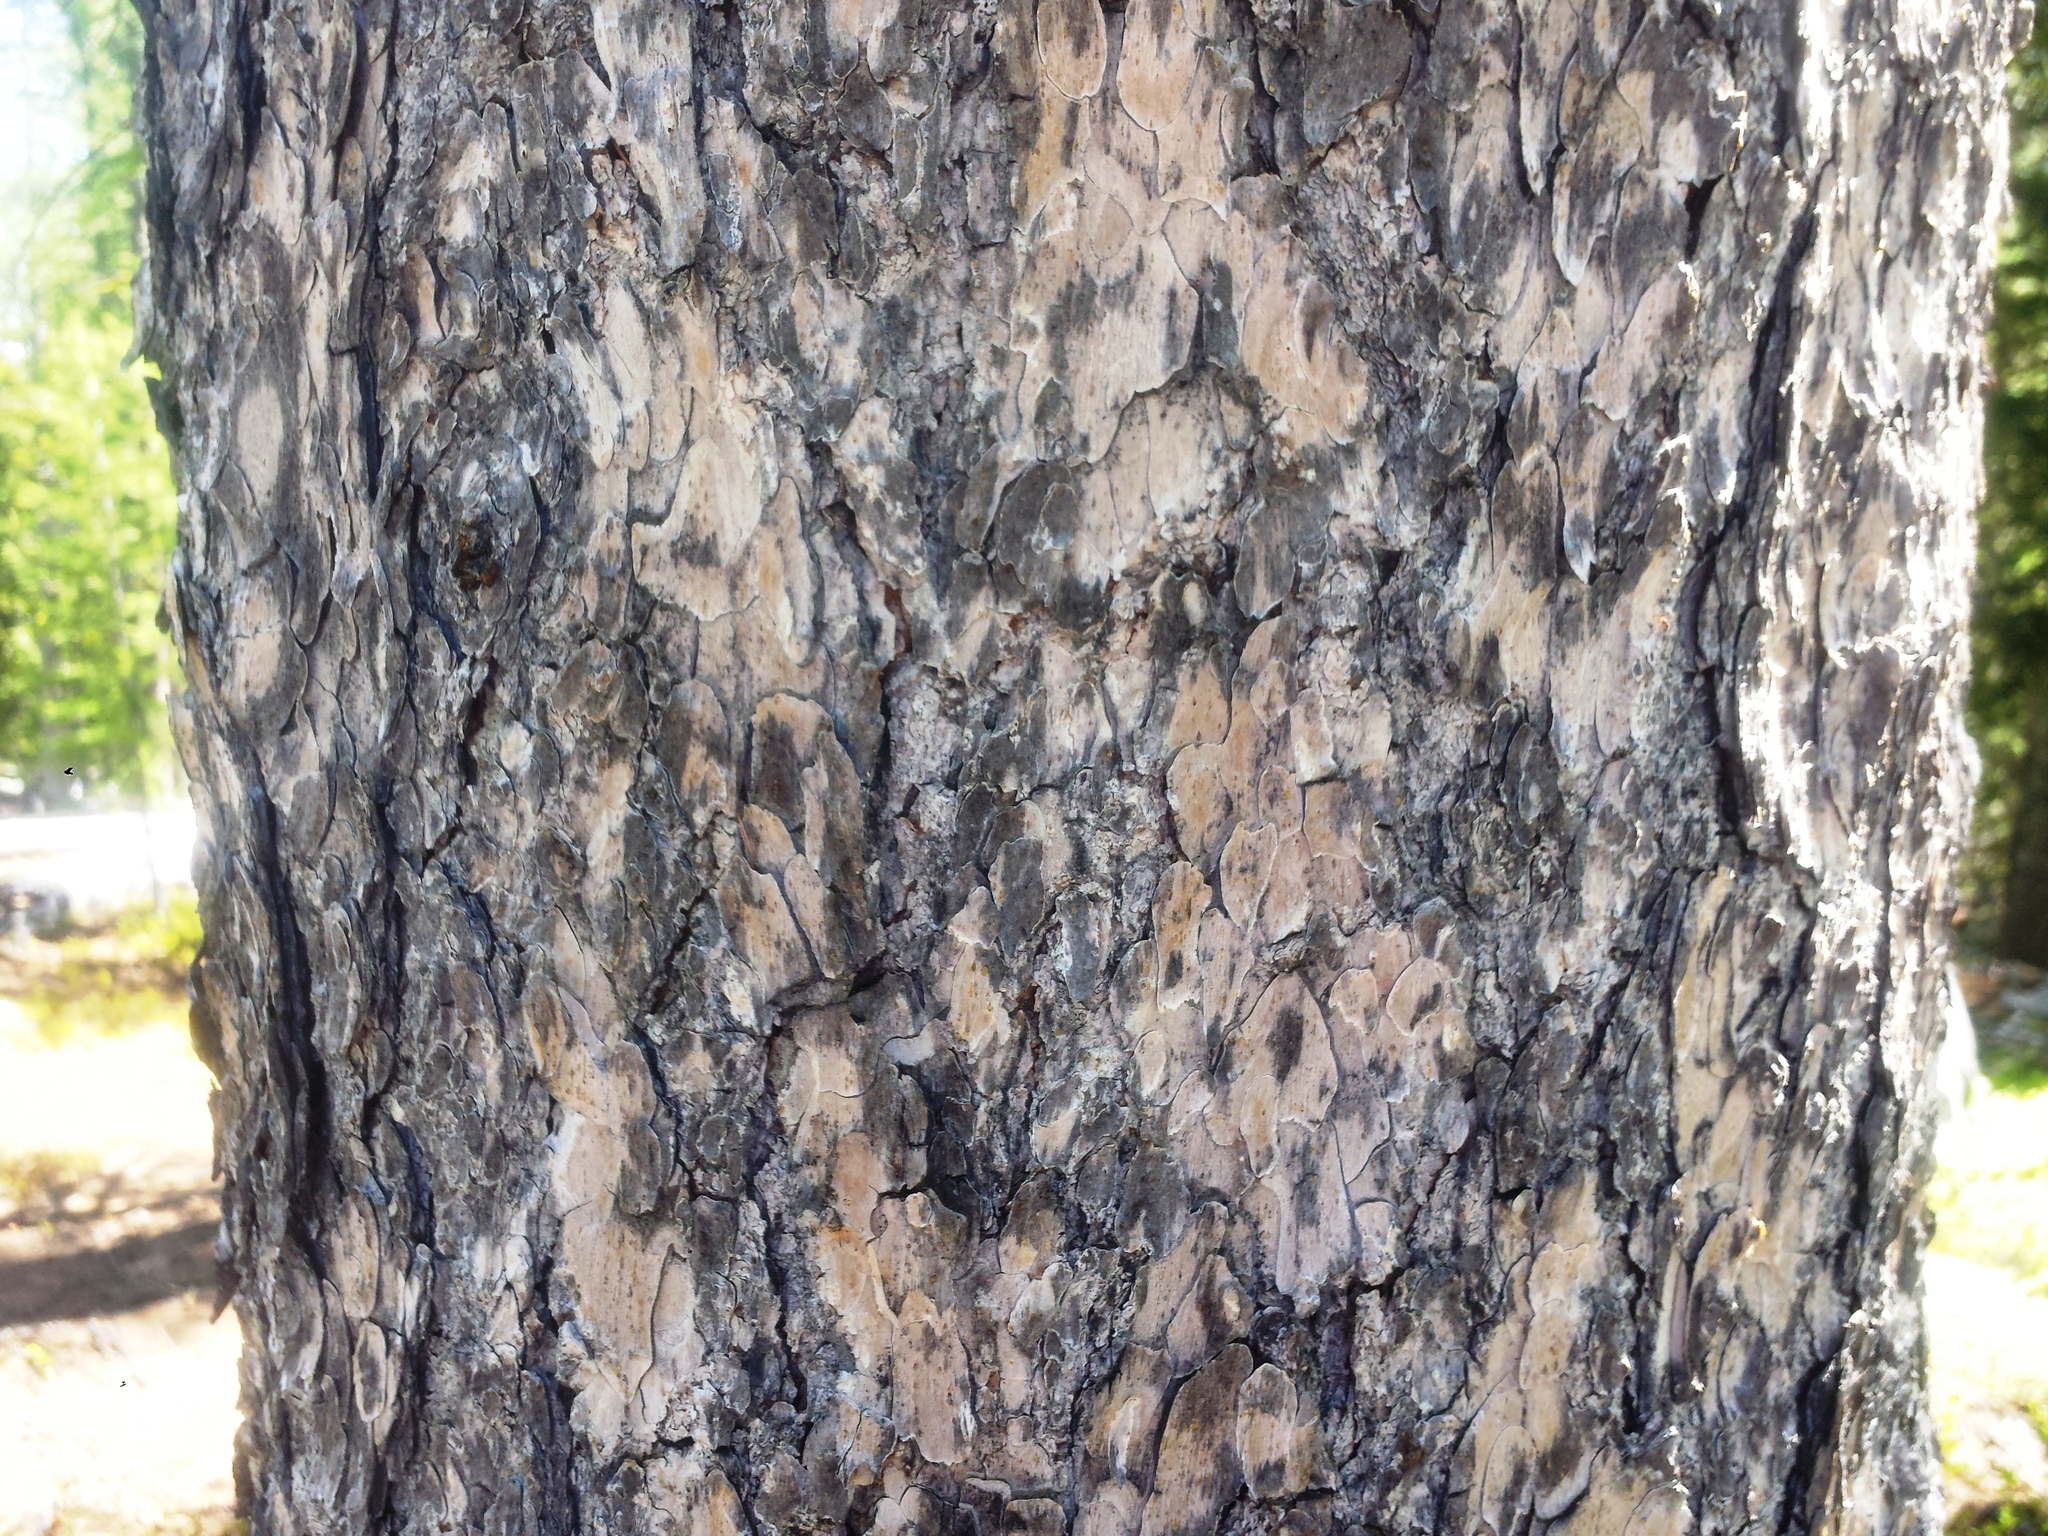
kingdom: Plantae
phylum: Tracheophyta
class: Pinopsida
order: Pinales
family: Pinaceae
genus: Larix
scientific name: Larix lyallii
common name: Alpine larch
